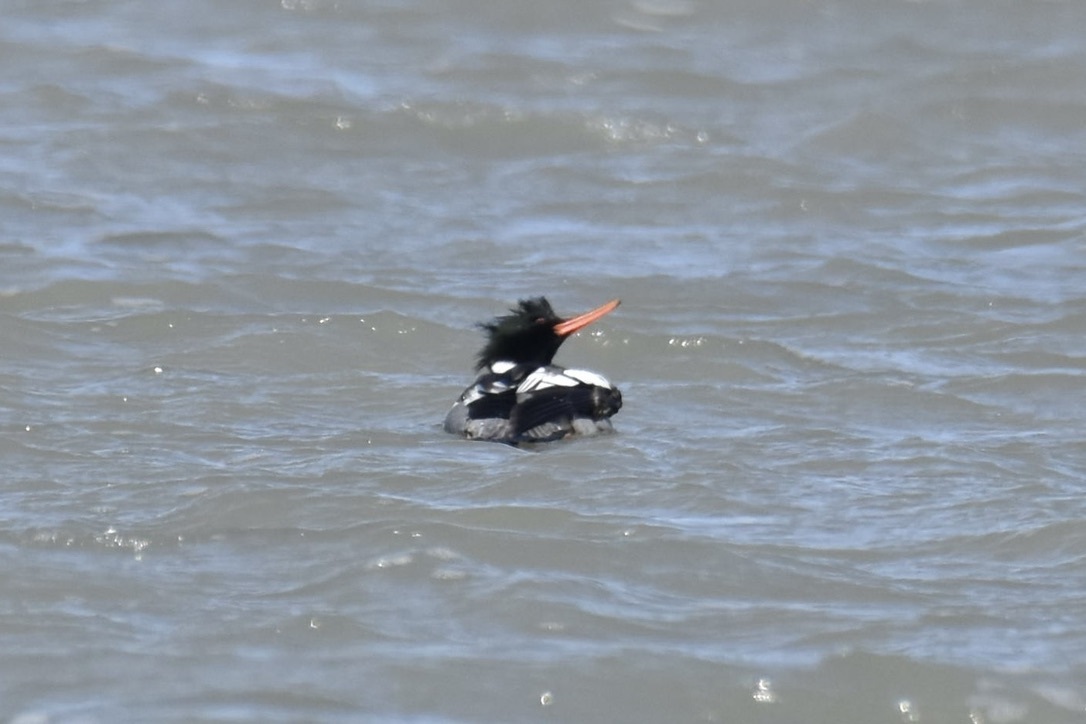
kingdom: Animalia
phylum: Chordata
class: Aves
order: Anseriformes
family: Anatidae
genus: Mergus
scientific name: Mergus serrator
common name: Red-breasted merganser
